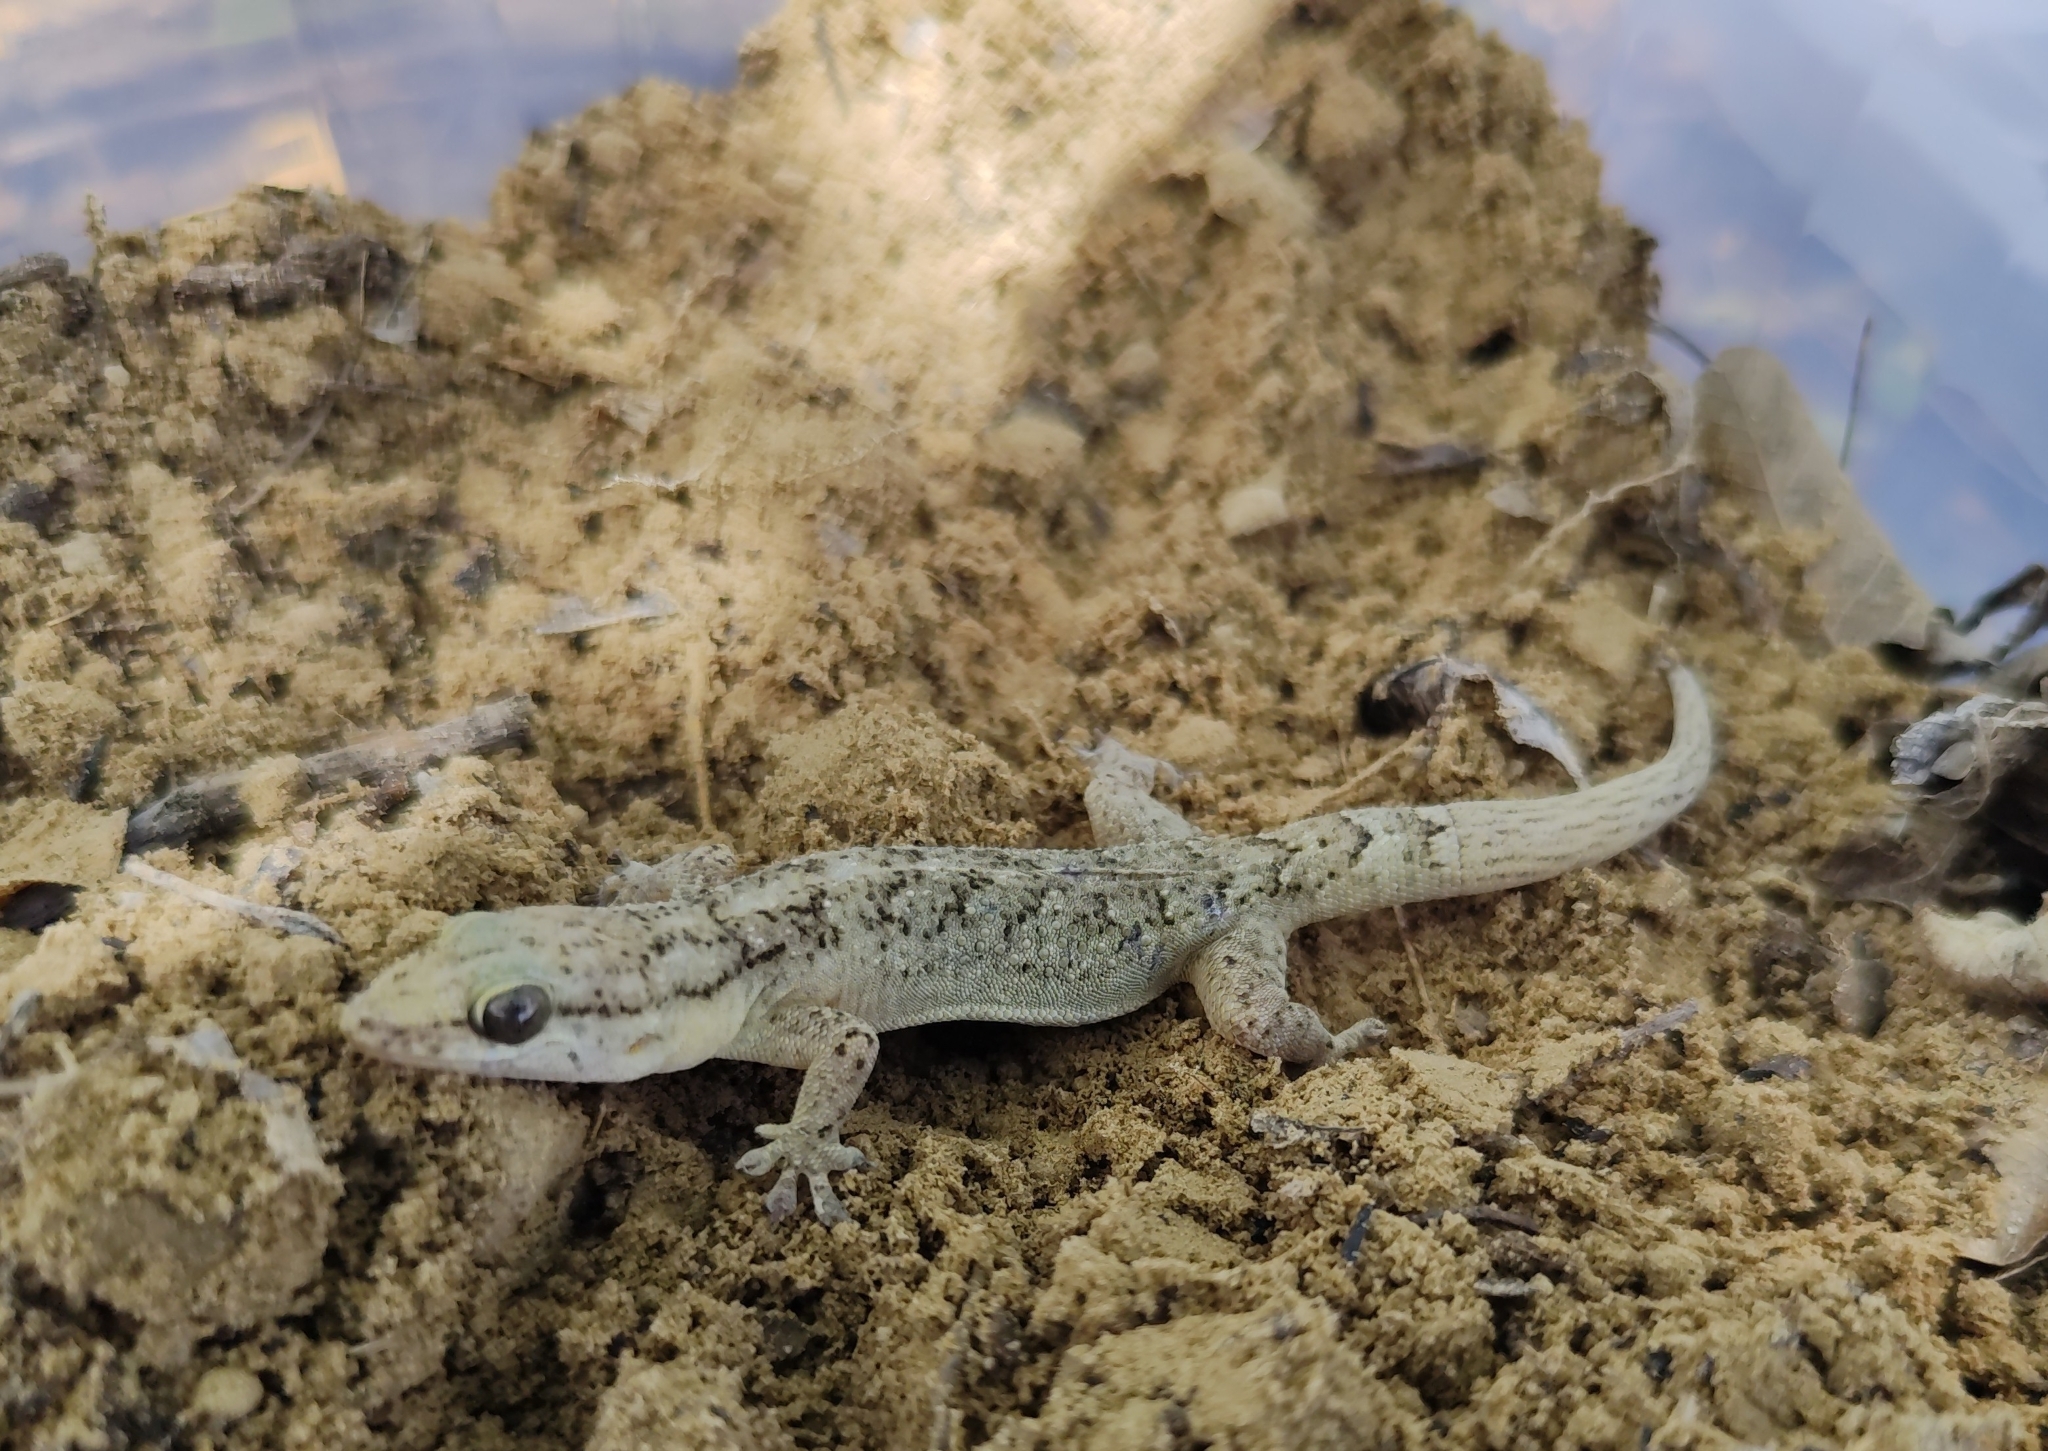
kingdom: Animalia
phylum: Chordata
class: Squamata
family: Phyllodactylidae
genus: Phyllopezus
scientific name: Phyllopezus pollicaris
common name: Brazilian gecko
